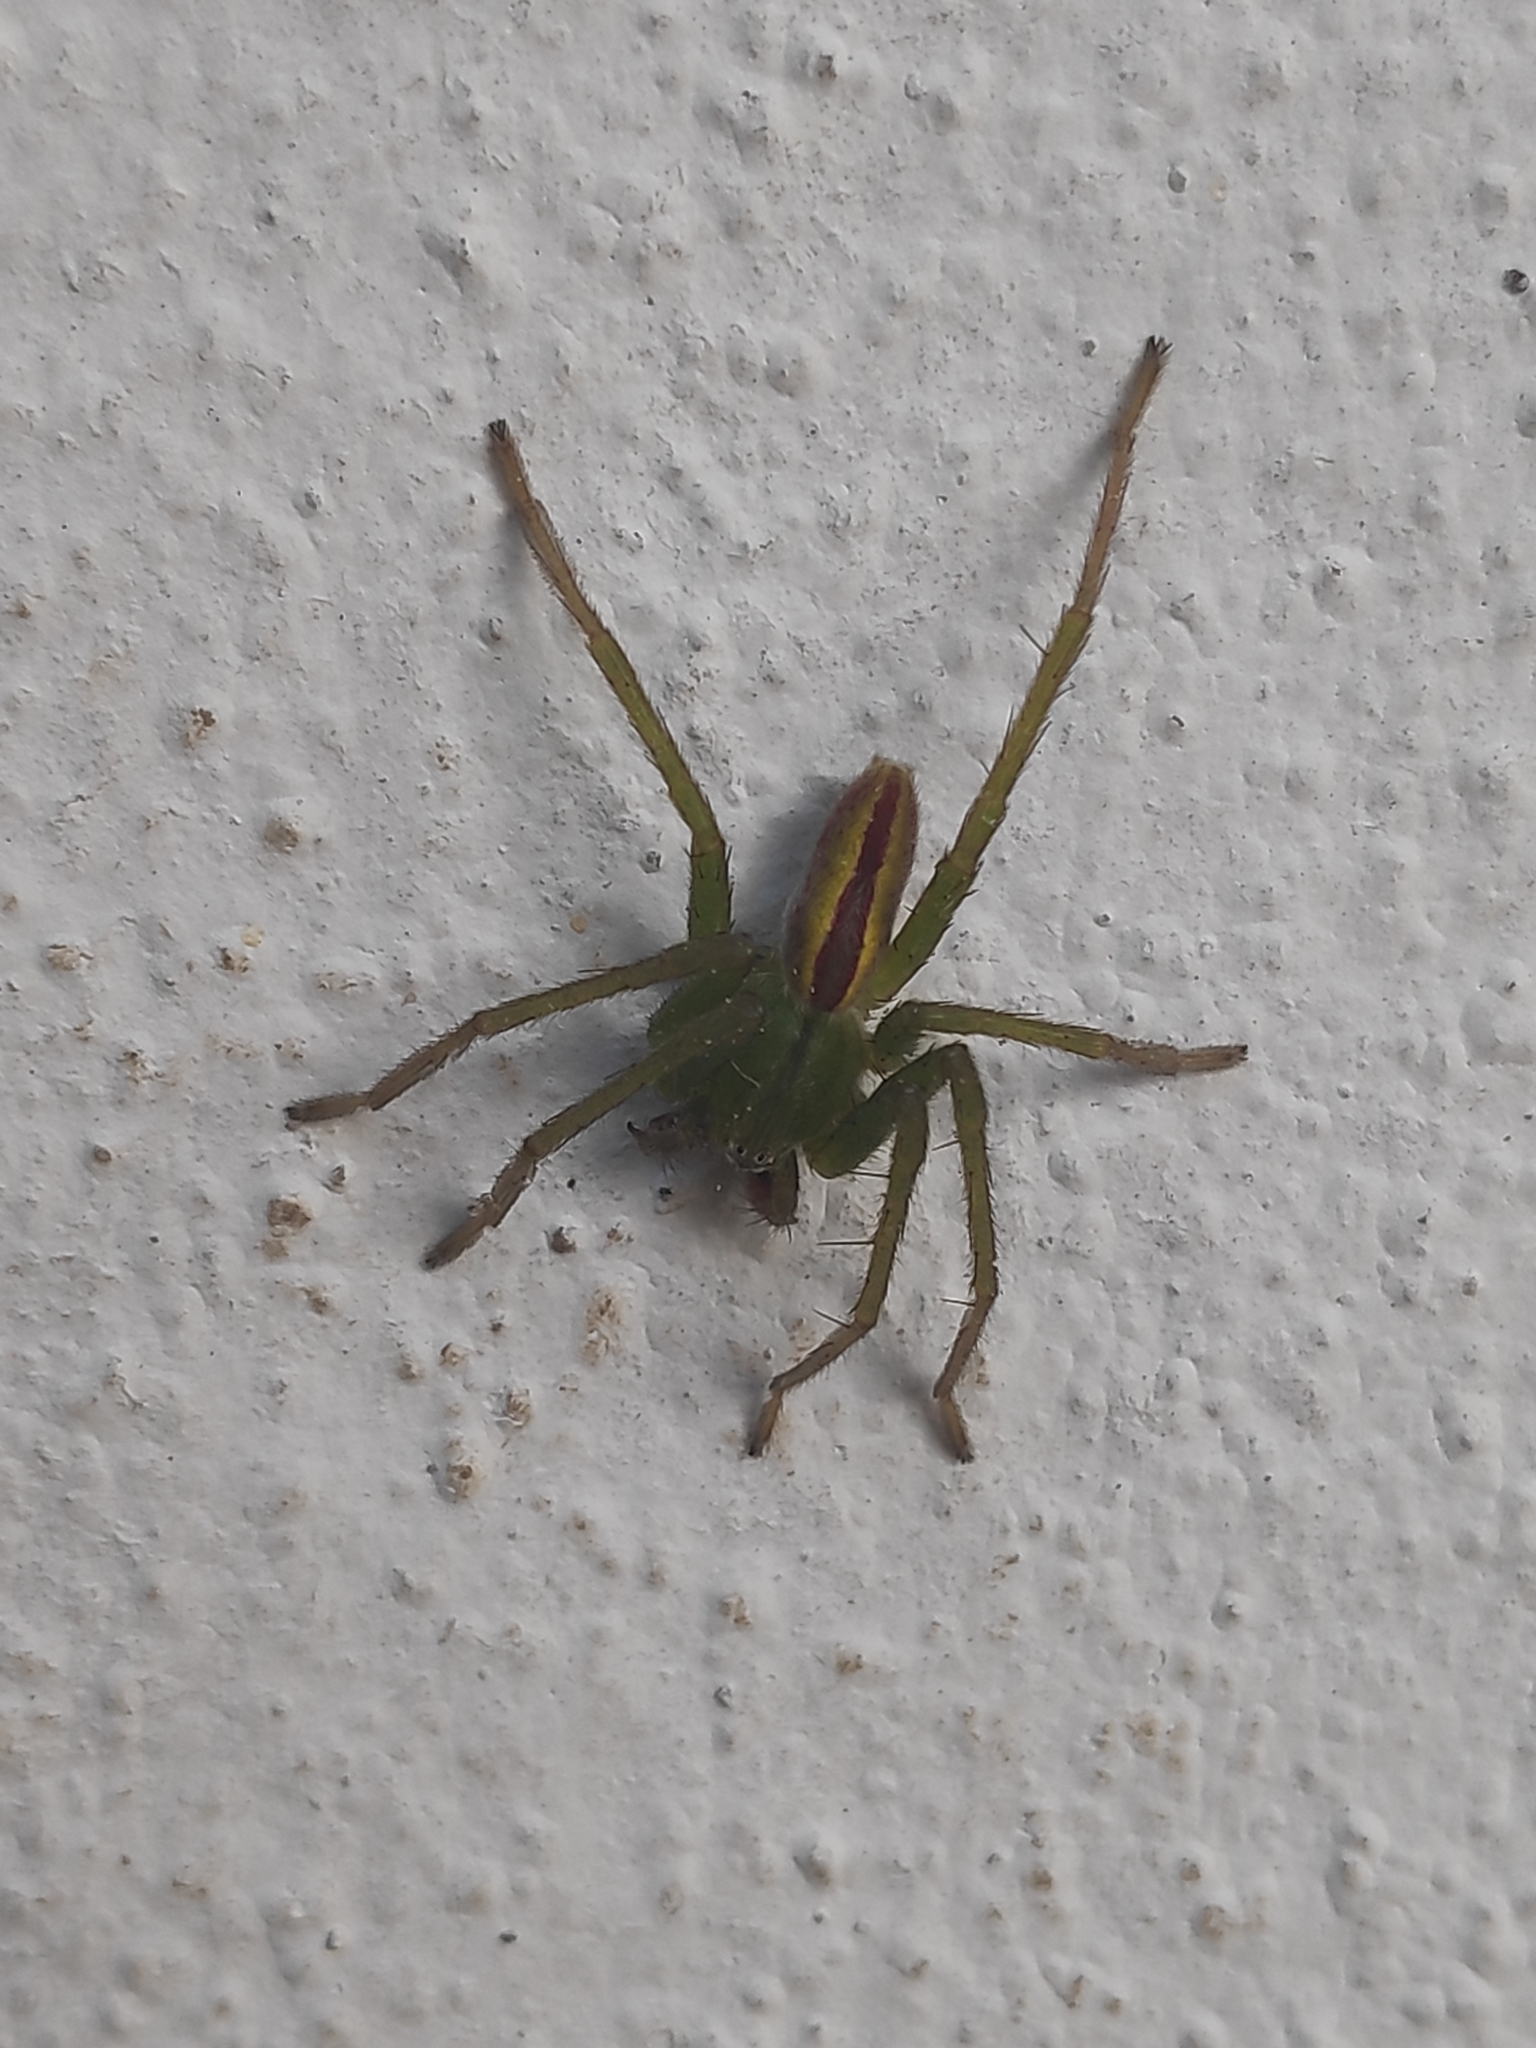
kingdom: Animalia
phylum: Arthropoda
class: Arachnida
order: Araneae
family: Sparassidae
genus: Micrommata
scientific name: Micrommata virescens
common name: Green spider
